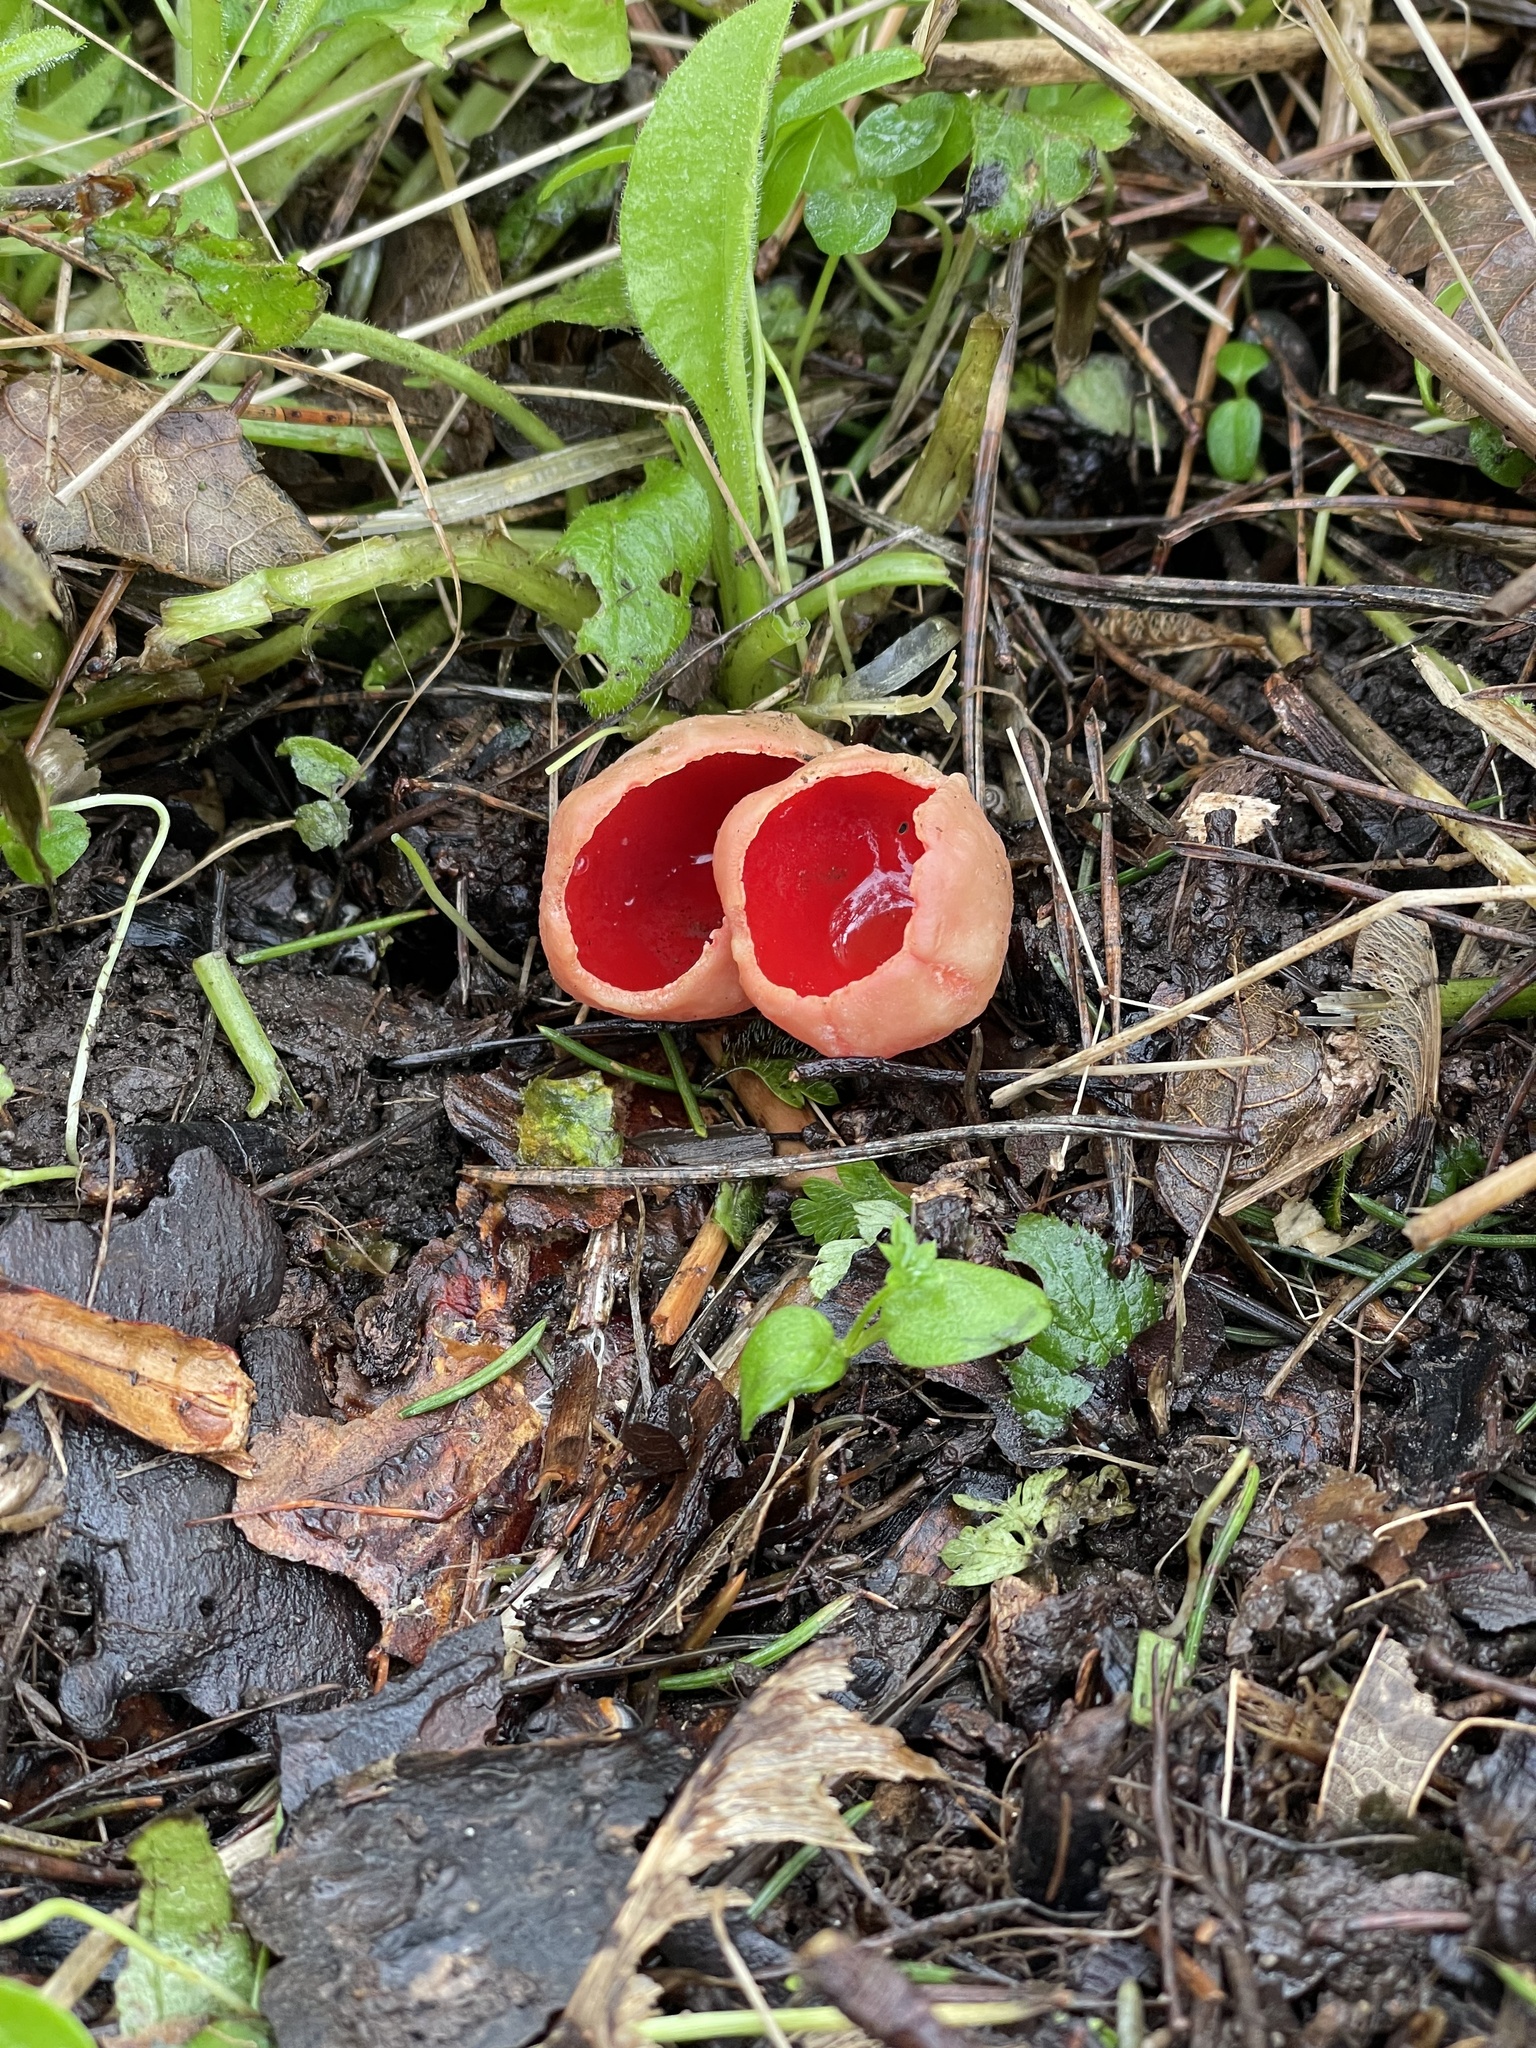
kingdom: Fungi
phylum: Ascomycota
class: Pezizomycetes
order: Pezizales
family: Sarcoscyphaceae
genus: Sarcoscypha
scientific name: Sarcoscypha
